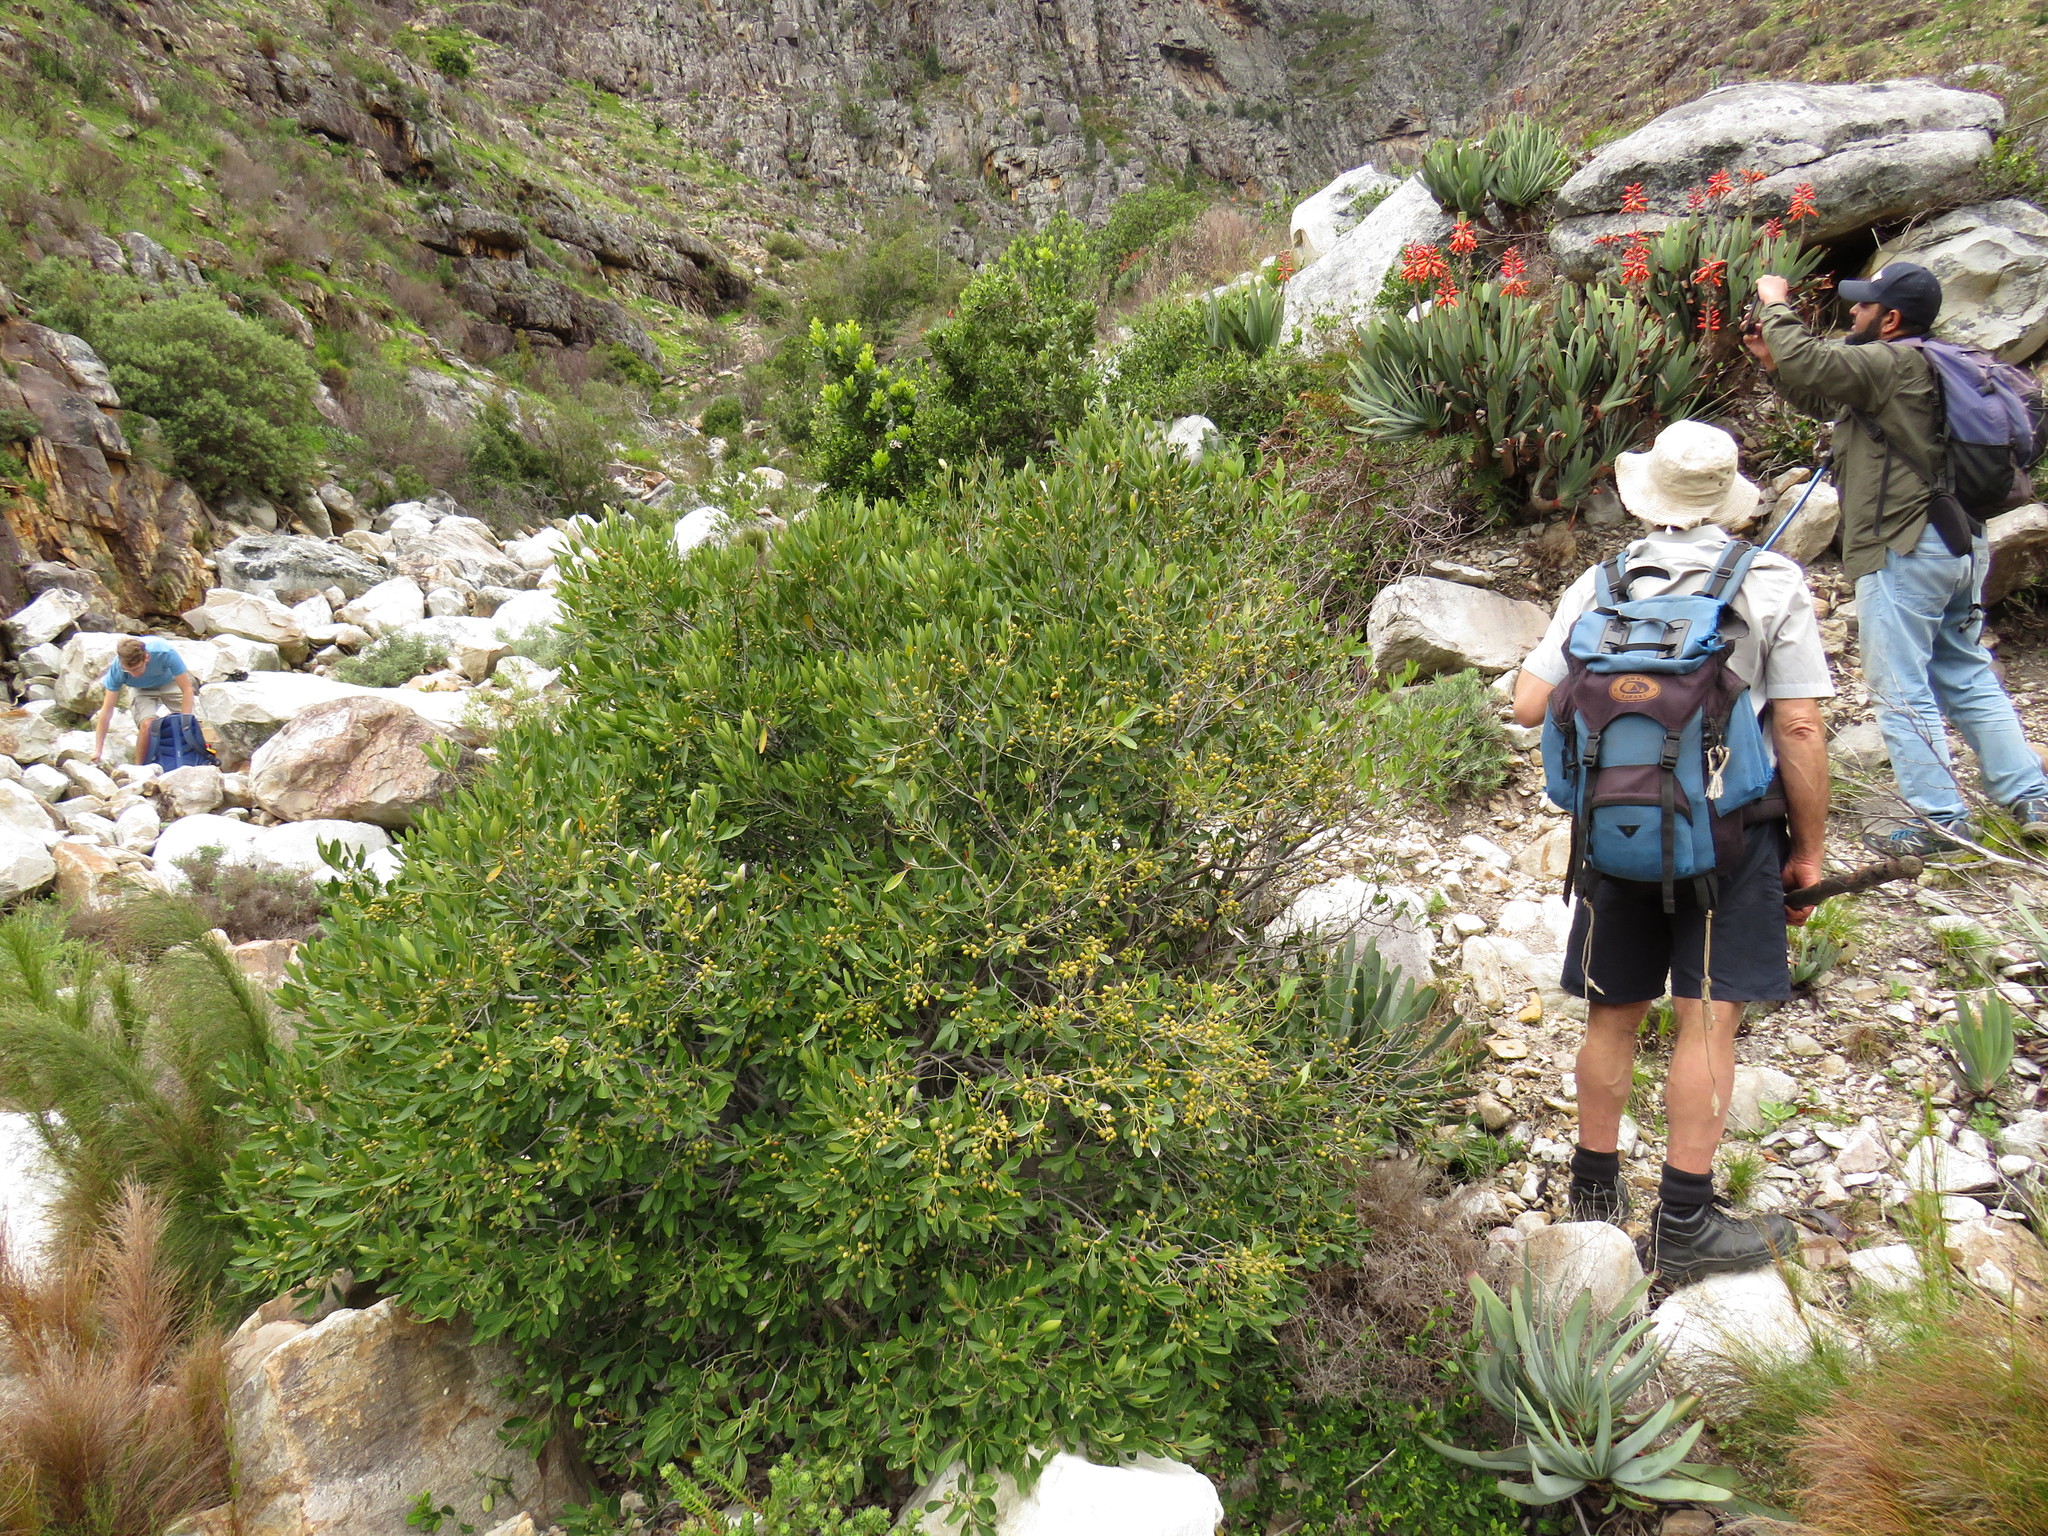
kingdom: Plantae
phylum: Tracheophyta
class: Magnoliopsida
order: Celastrales
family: Celastraceae
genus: Elaeodendron
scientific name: Elaeodendron schinoides
